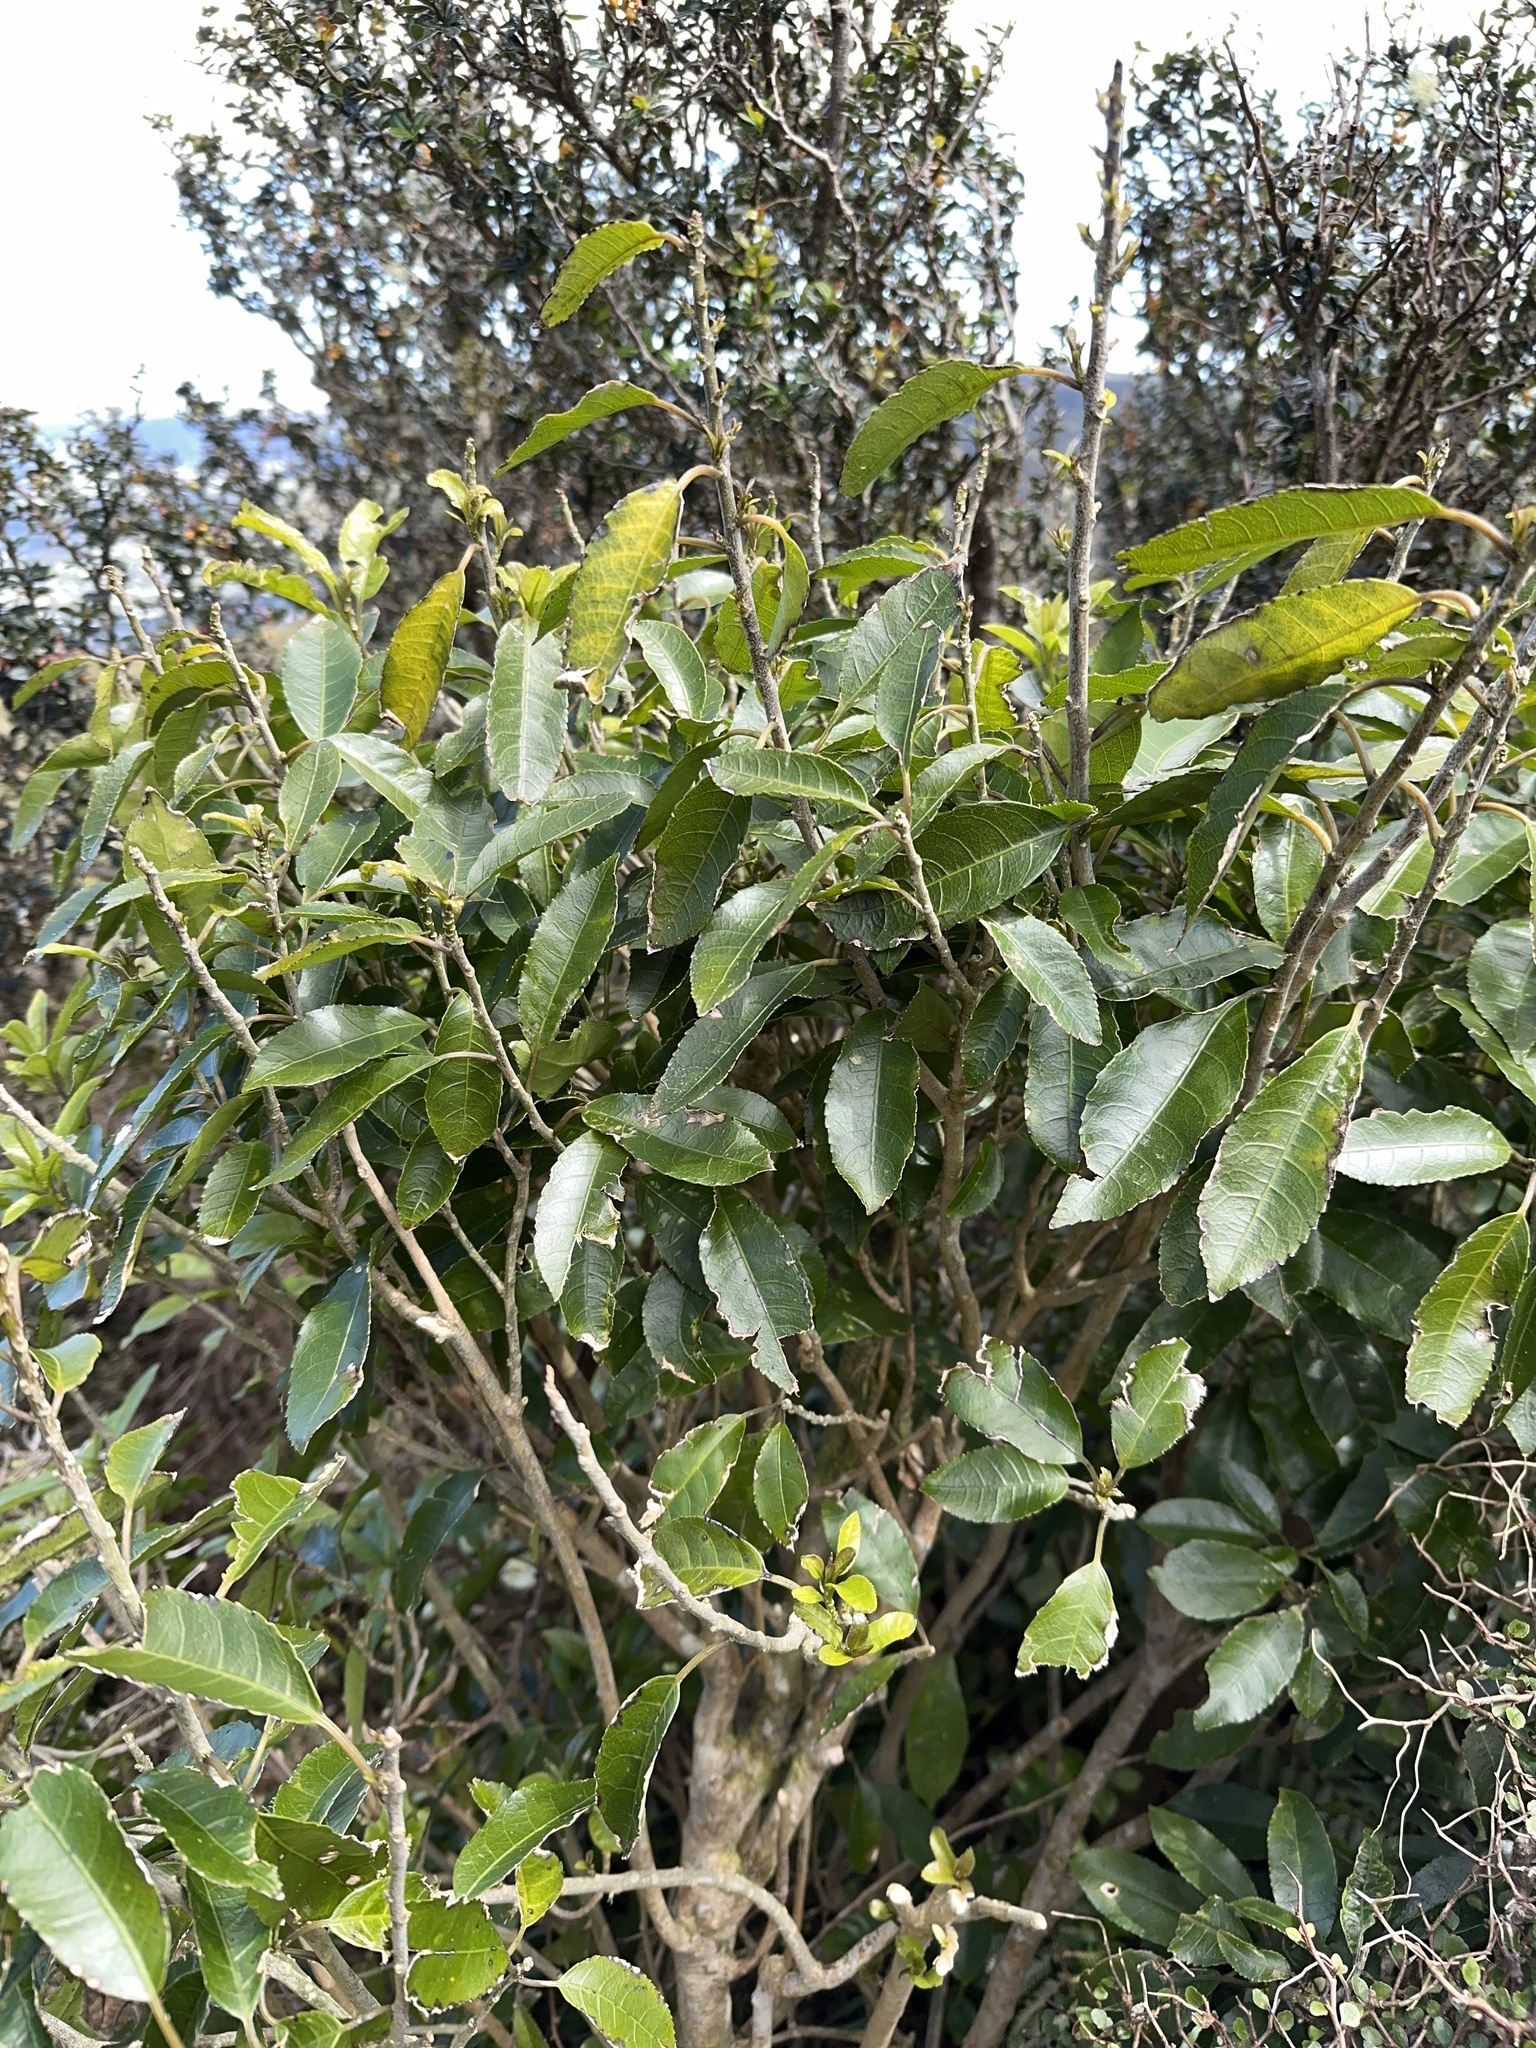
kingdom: Plantae
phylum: Tracheophyta
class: Magnoliopsida
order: Malpighiales
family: Violaceae
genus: Melicytus
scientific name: Melicytus ramiflorus
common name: Mahoe
